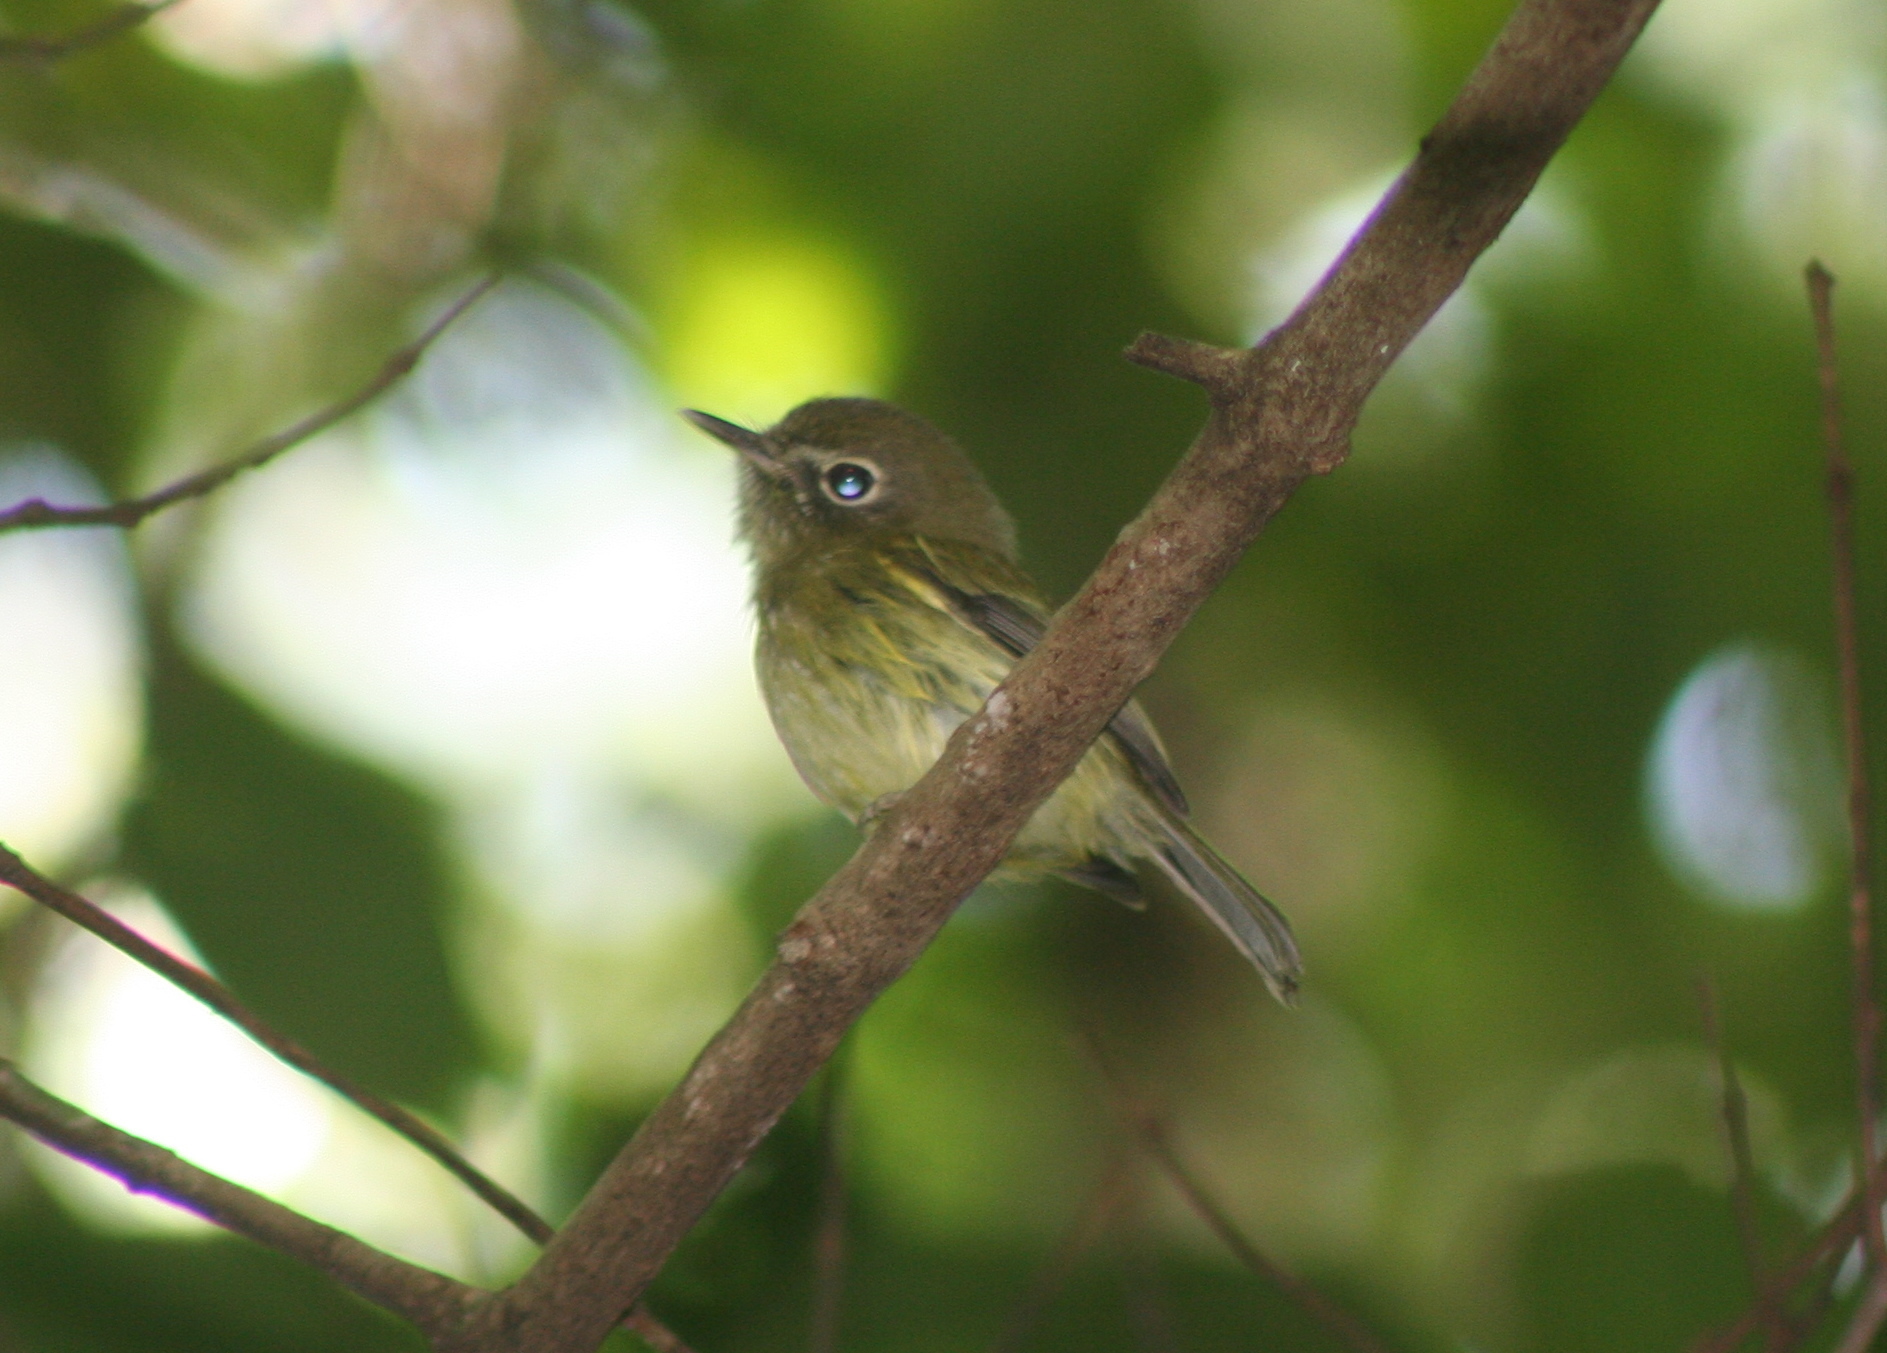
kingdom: Animalia
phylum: Chordata
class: Aves
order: Passeriformes
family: Tyrannidae
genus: Hemitriccus
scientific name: Hemitriccus orbitatus
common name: Eye-ringed tody-tyrant
